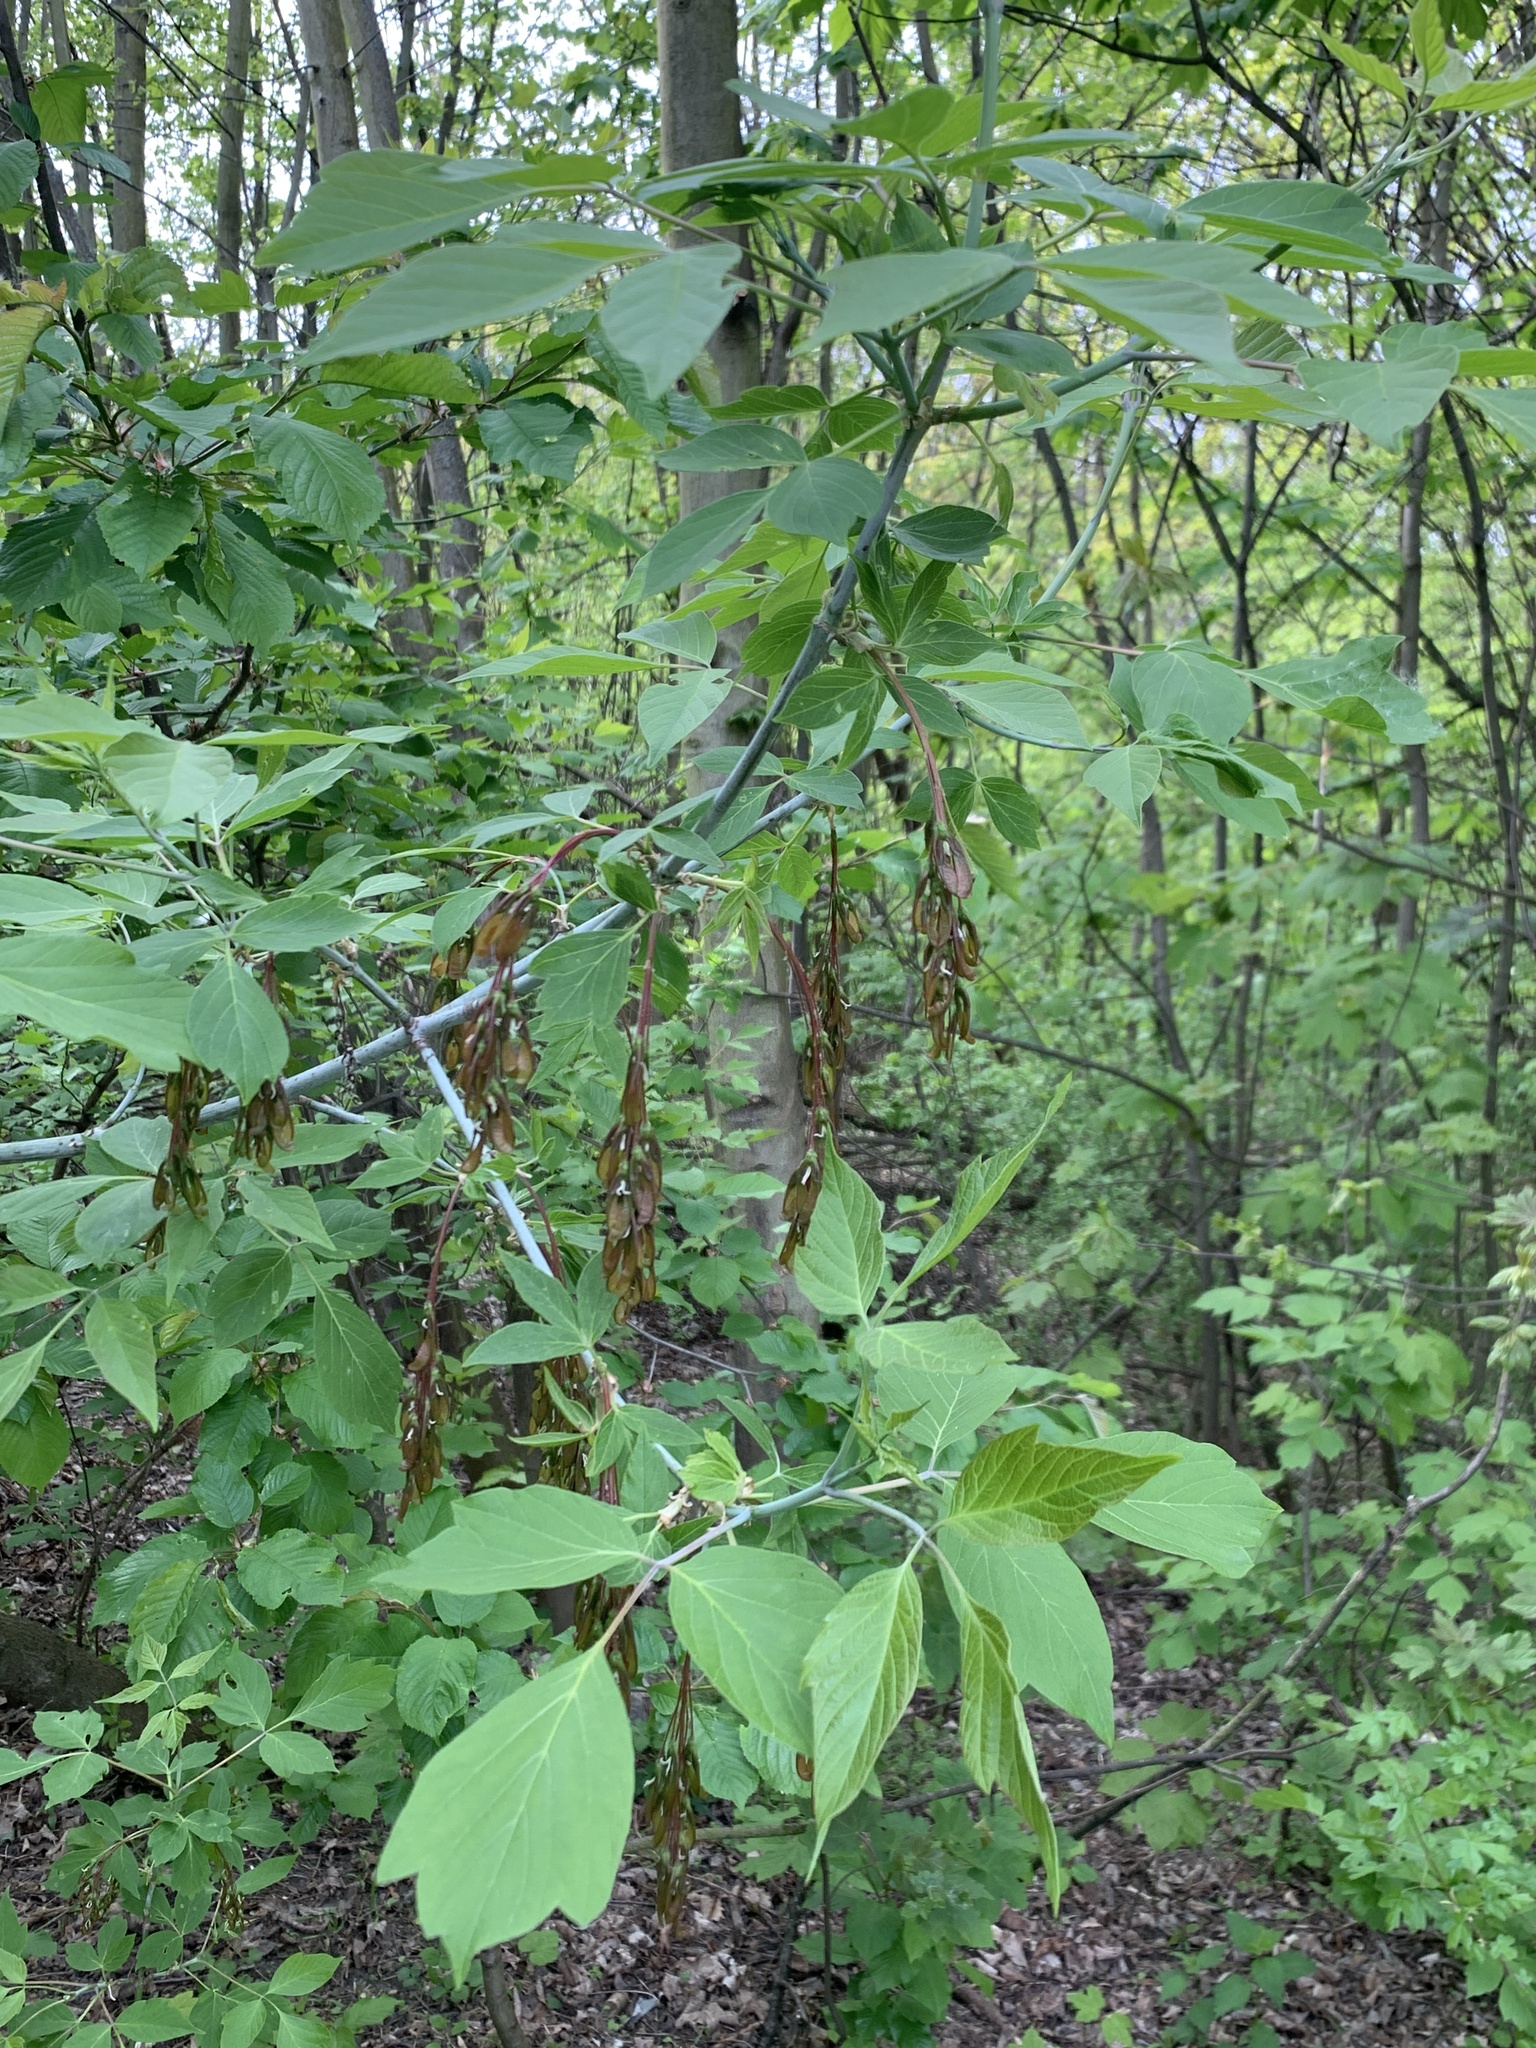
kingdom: Plantae
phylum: Tracheophyta
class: Magnoliopsida
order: Sapindales
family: Sapindaceae
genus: Acer
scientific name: Acer negundo
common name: Ashleaf maple
